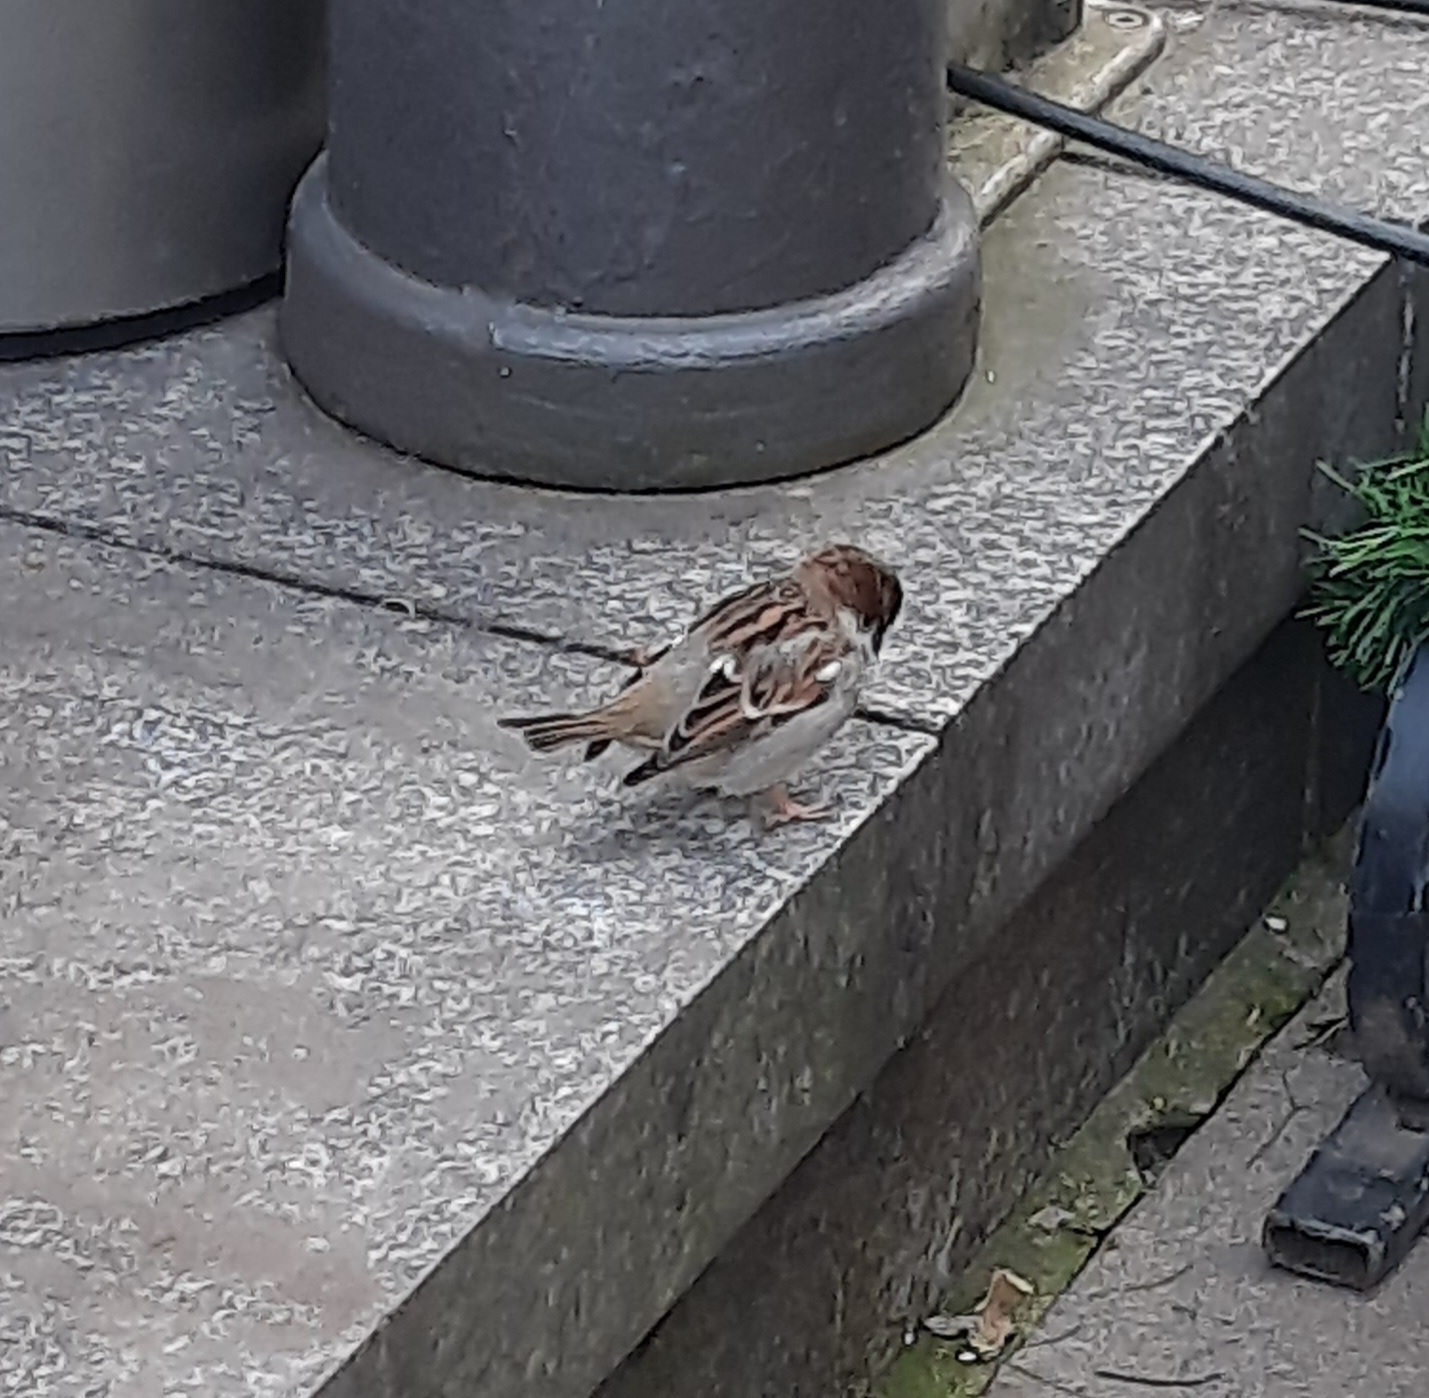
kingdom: Animalia
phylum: Chordata
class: Aves
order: Passeriformes
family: Passeridae
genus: Passer
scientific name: Passer domesticus
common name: House sparrow
